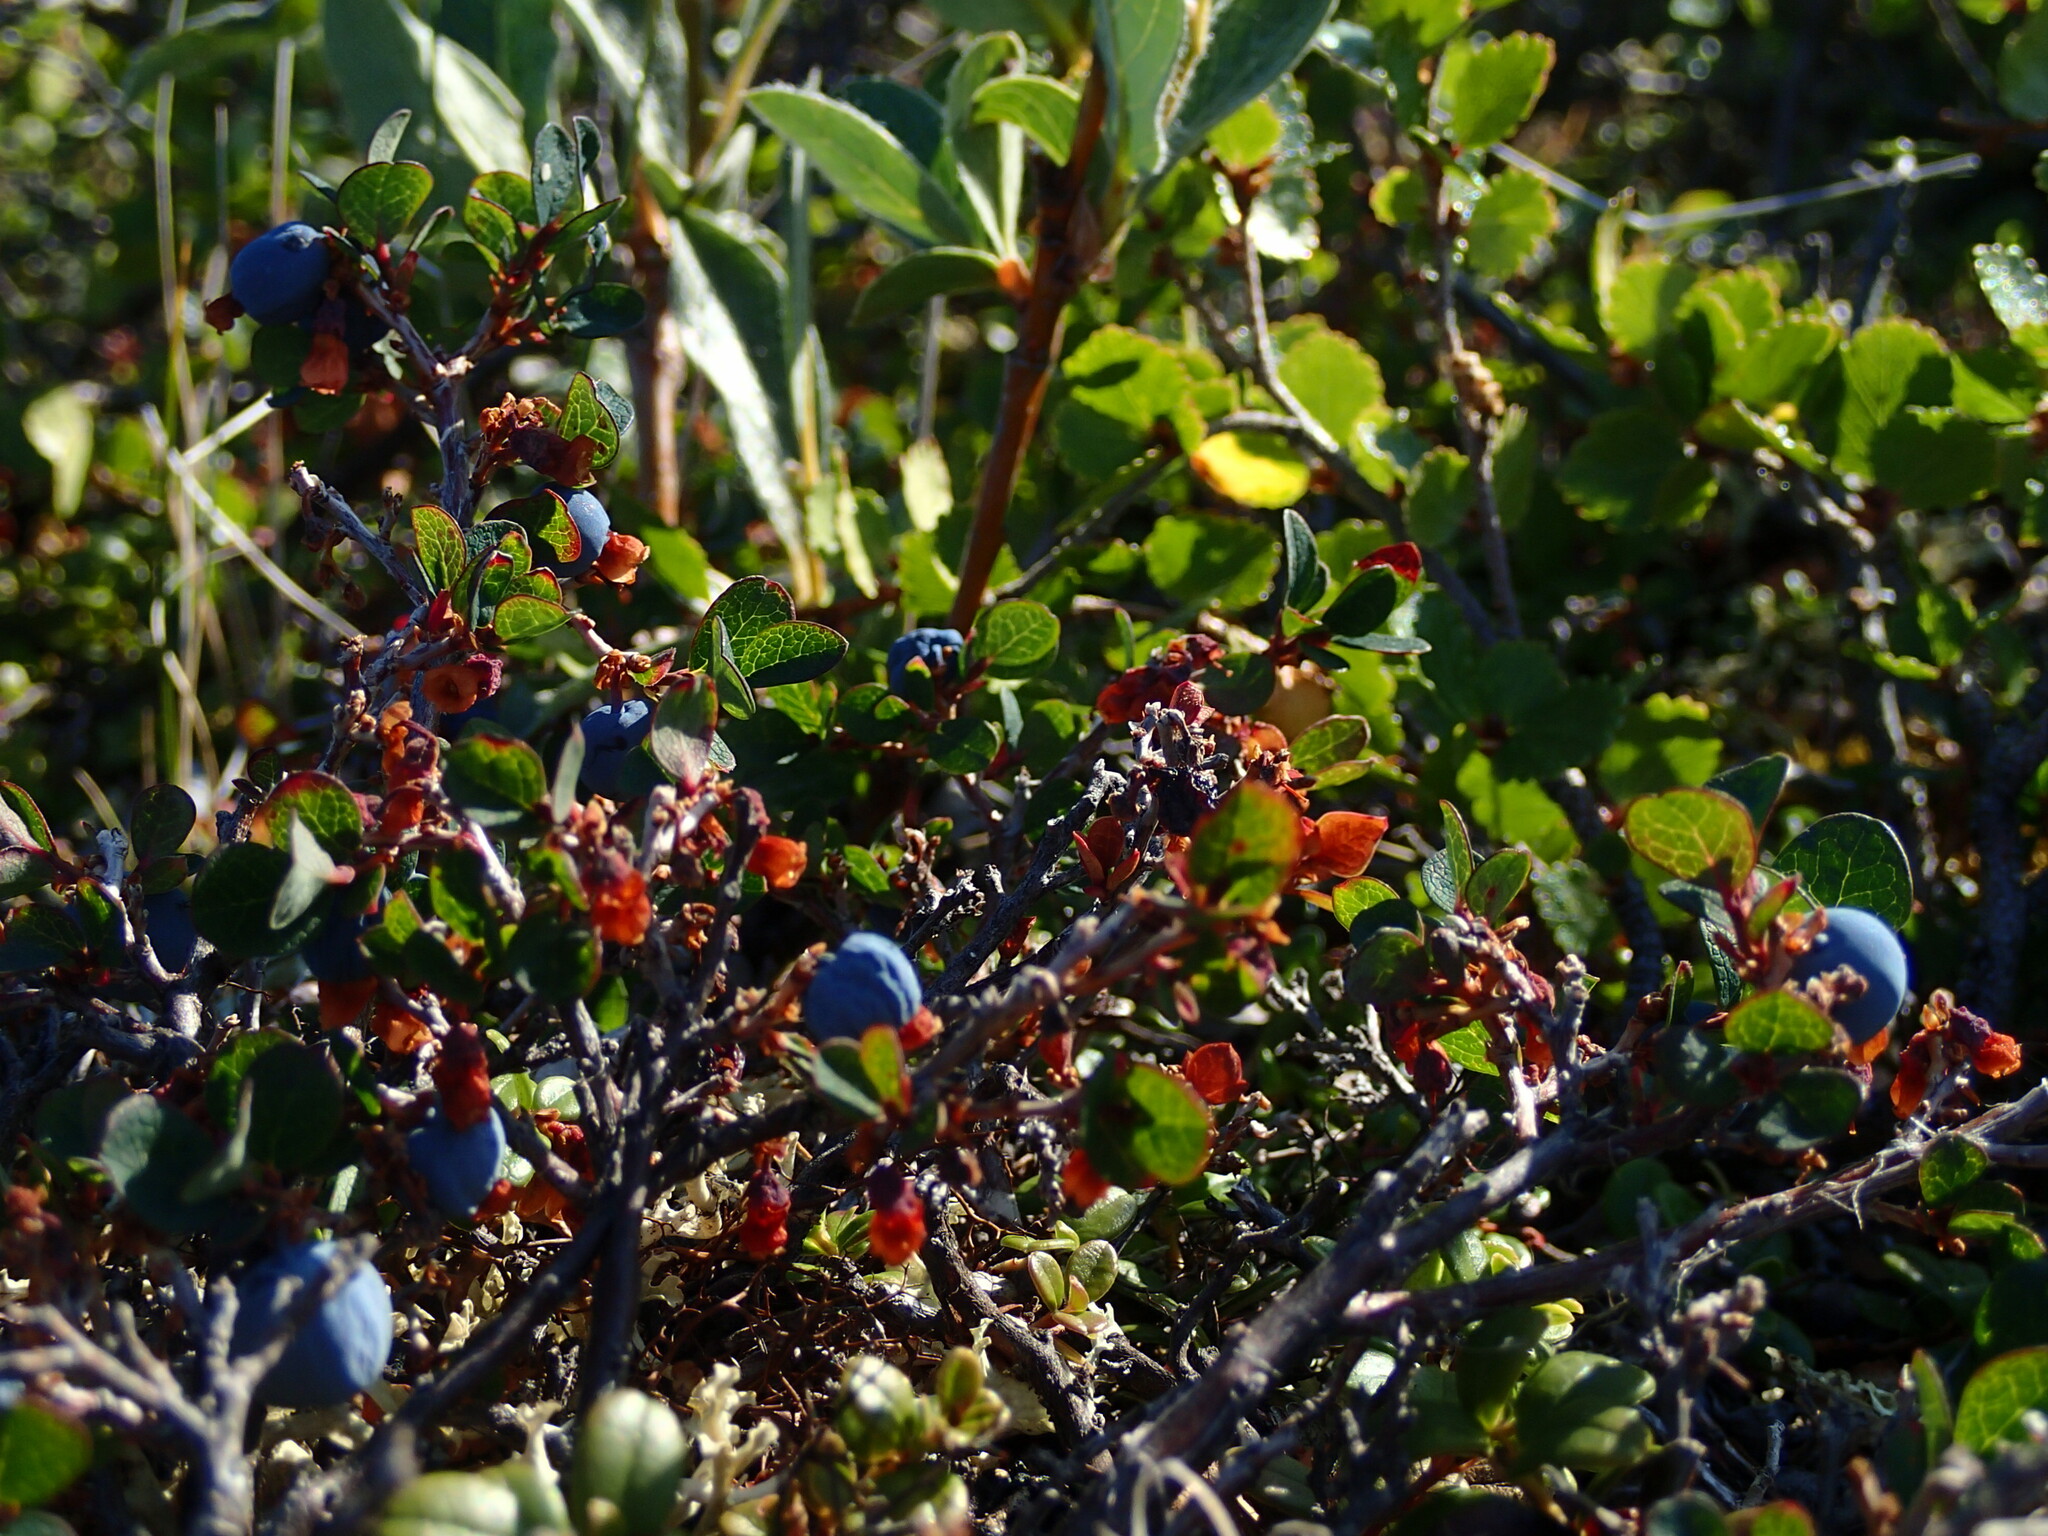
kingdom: Plantae
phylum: Tracheophyta
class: Magnoliopsida
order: Ericales
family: Ericaceae
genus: Vaccinium
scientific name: Vaccinium uliginosum
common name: Bog bilberry
